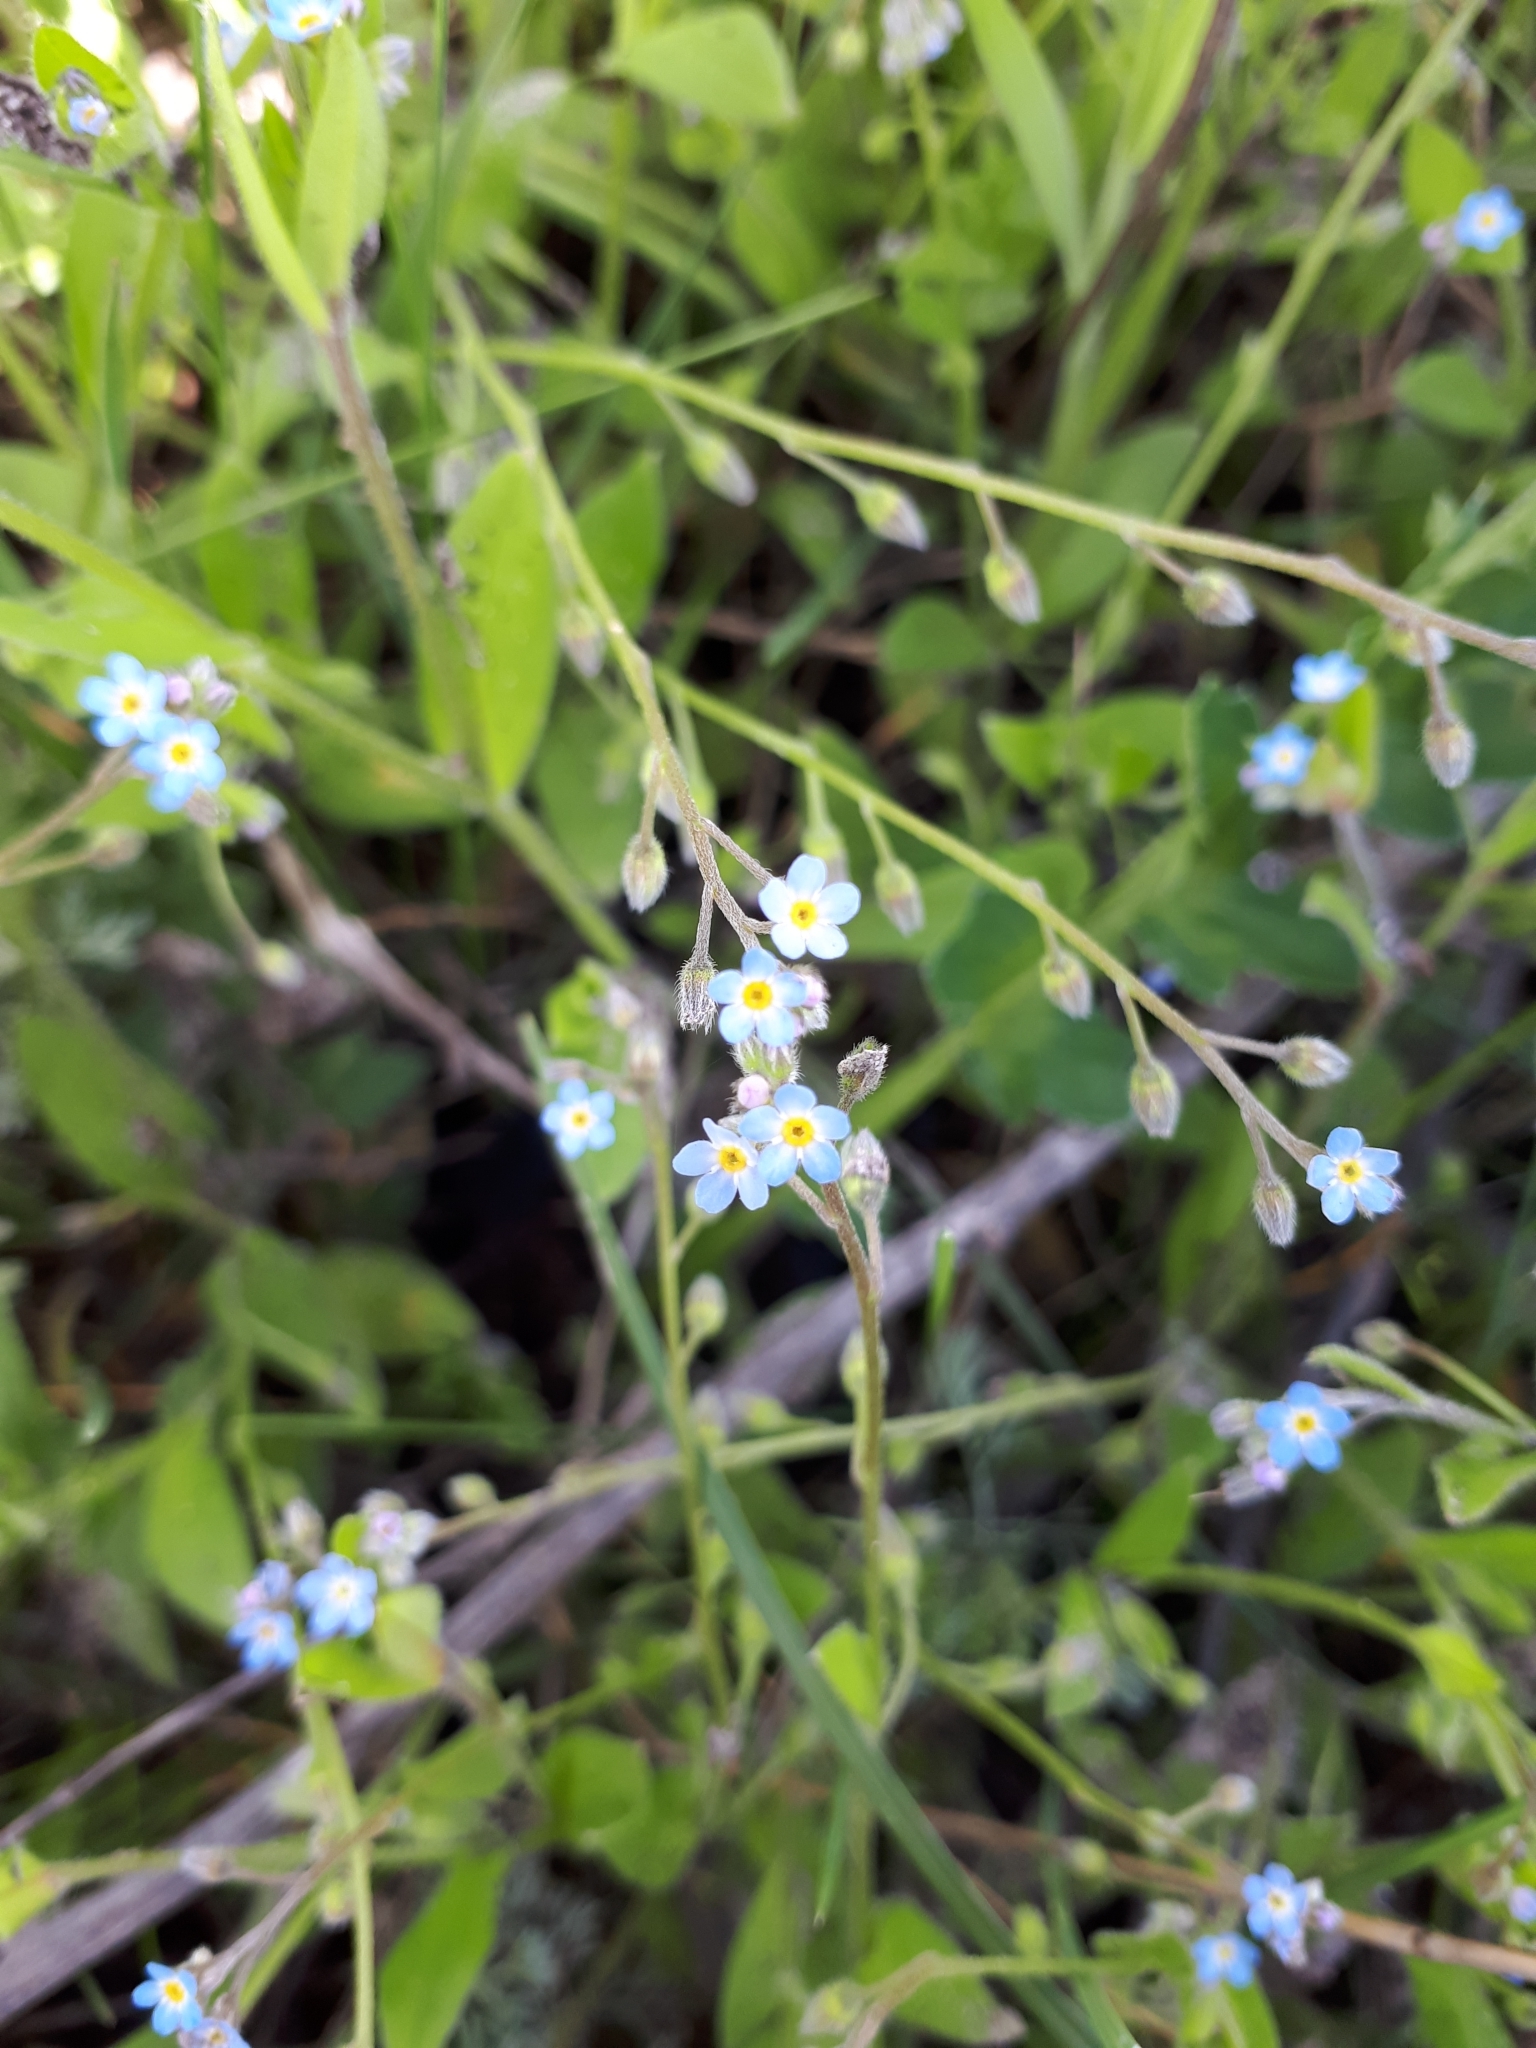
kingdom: Plantae
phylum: Tracheophyta
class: Magnoliopsida
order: Boraginales
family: Boraginaceae
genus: Myosotis
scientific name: Myosotis arvensis
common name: Field forget-me-not
